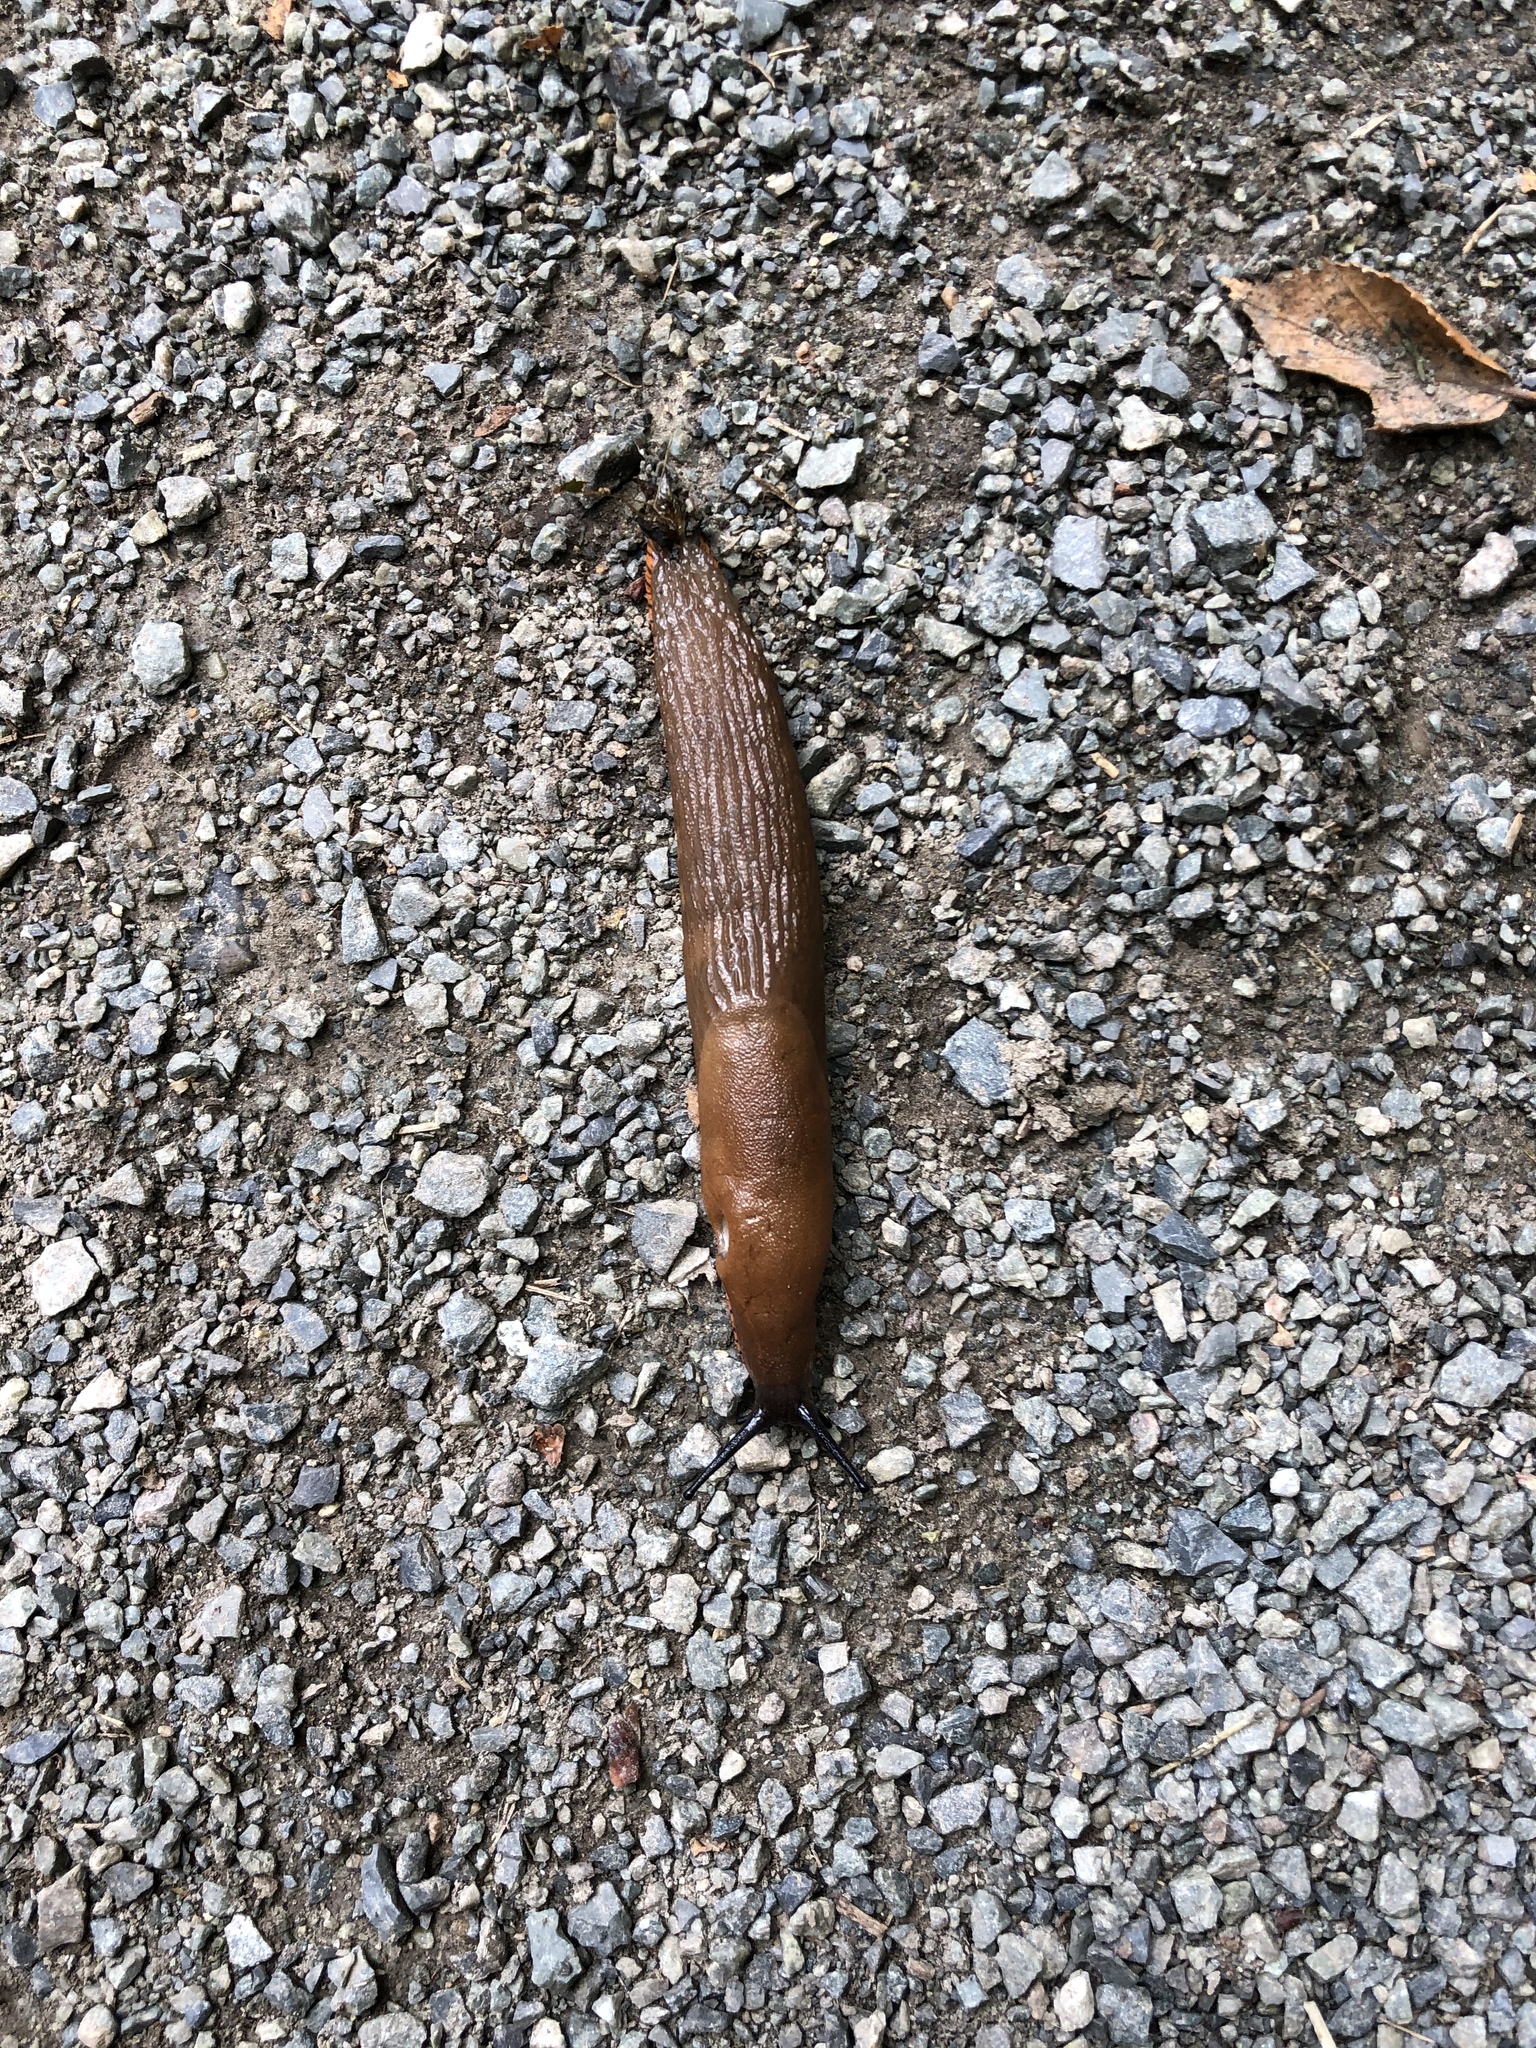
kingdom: Animalia
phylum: Mollusca
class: Gastropoda
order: Stylommatophora
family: Arionidae
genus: Arion
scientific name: Arion rufus
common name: Chocolate arion
